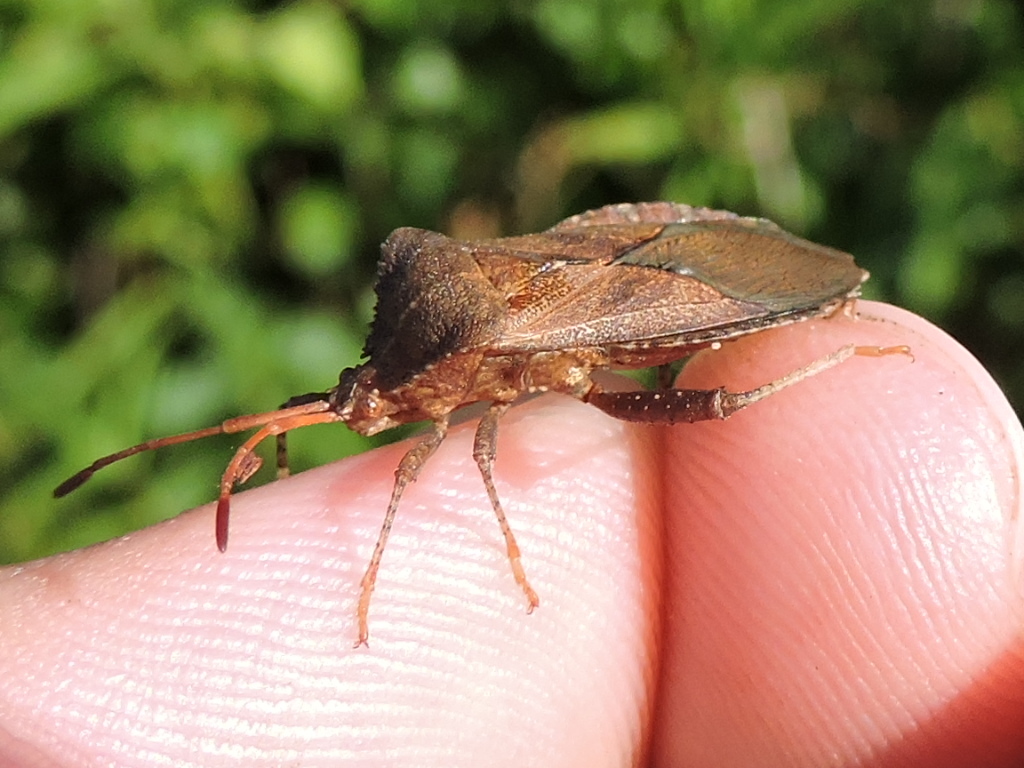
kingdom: Animalia
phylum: Arthropoda
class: Insecta
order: Hemiptera
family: Coreidae
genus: Euthochtha
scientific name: Euthochtha galeator
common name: Helmeted squash bug
